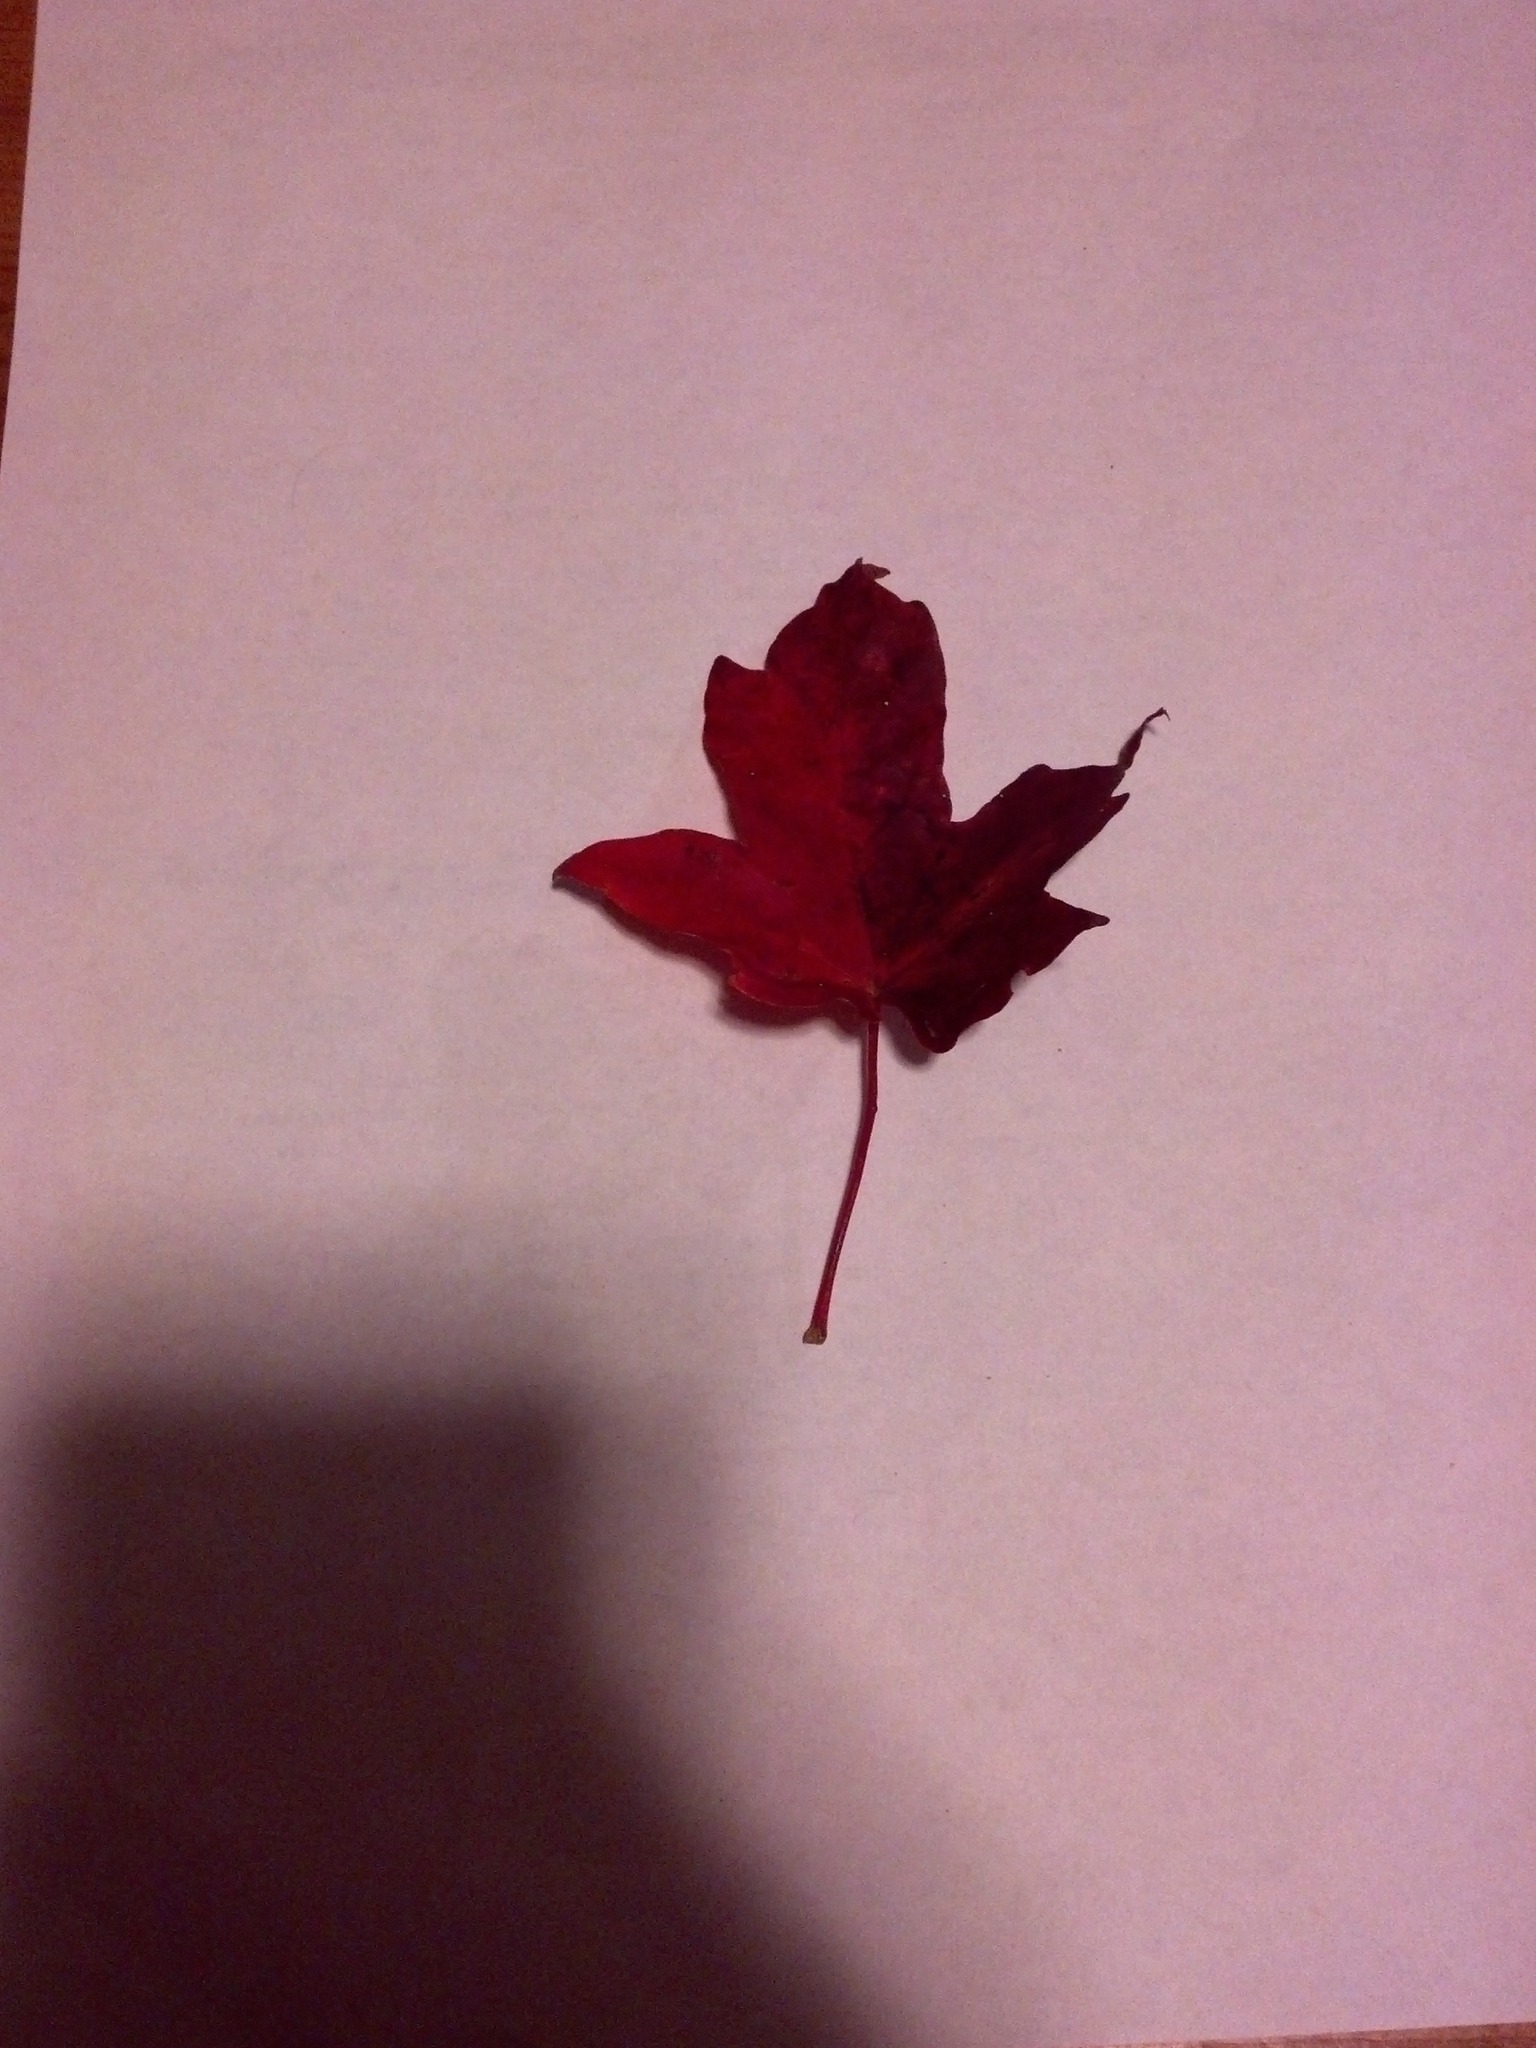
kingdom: Plantae
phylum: Tracheophyta
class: Magnoliopsida
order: Sapindales
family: Sapindaceae
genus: Acer
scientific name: Acer saccharum
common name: Sugar maple
